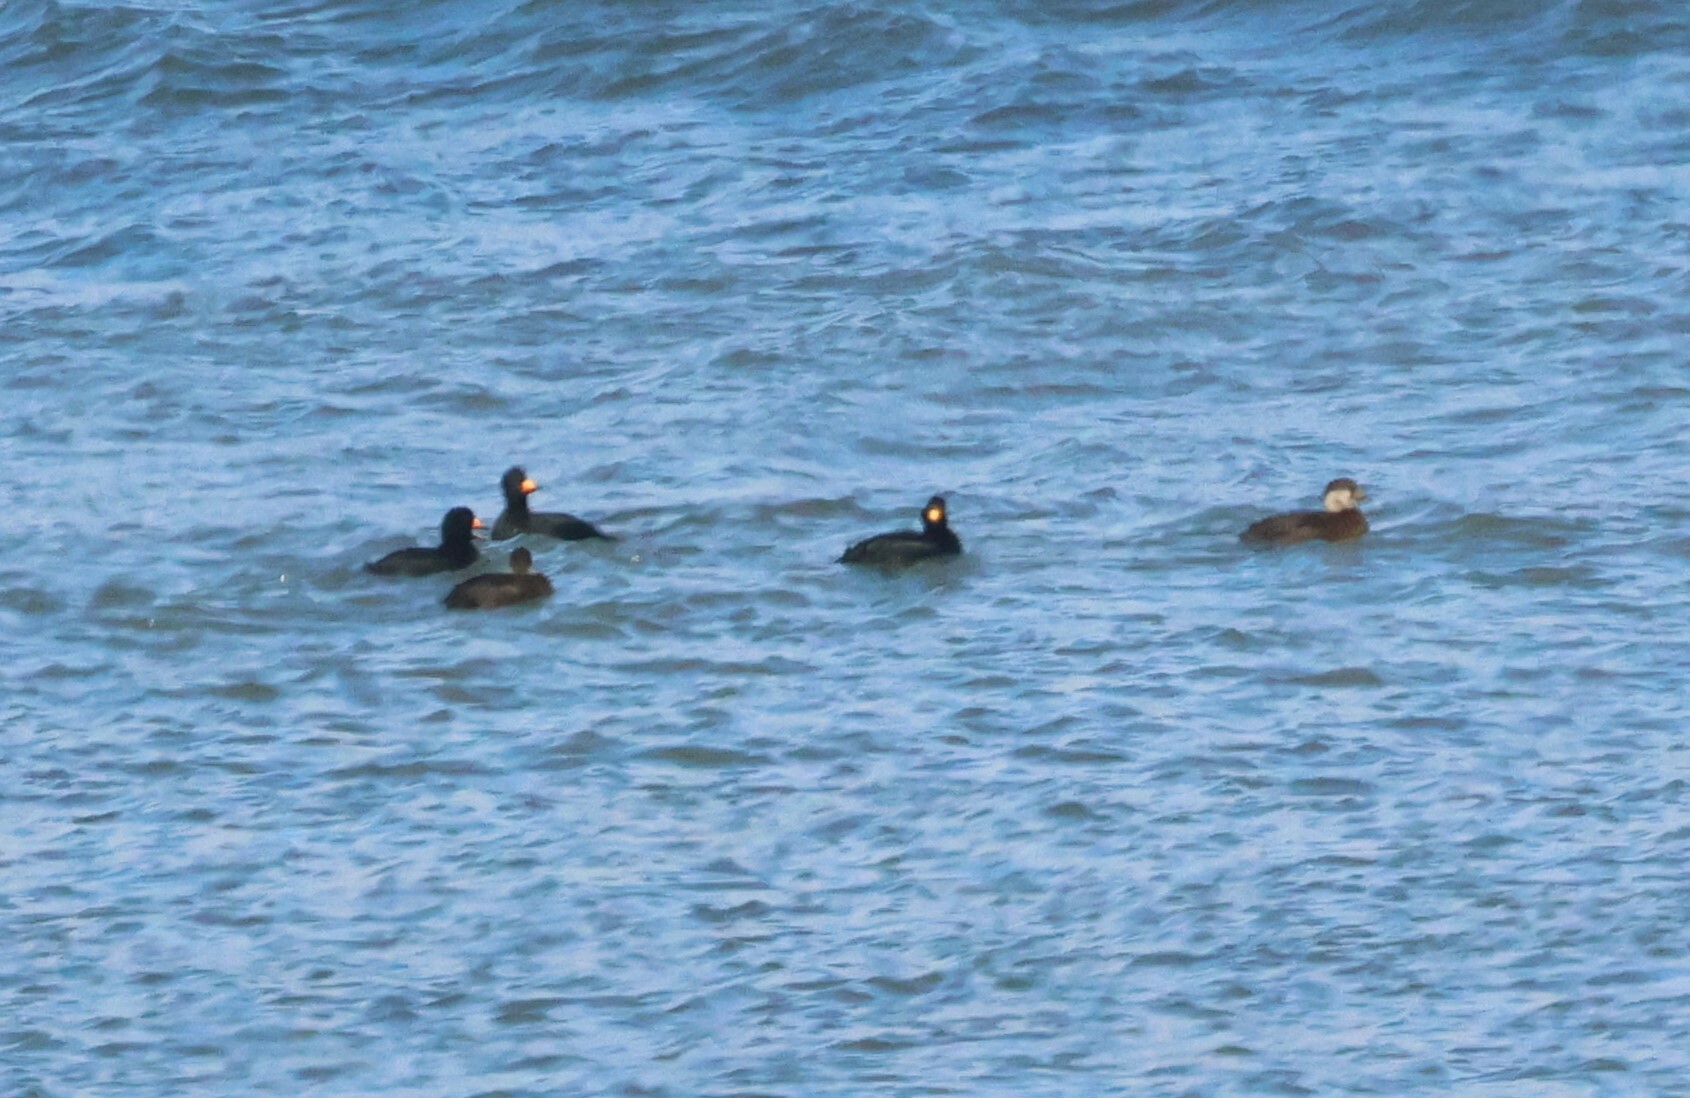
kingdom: Animalia
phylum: Chordata
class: Aves
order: Anseriformes
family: Anatidae
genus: Melanitta
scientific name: Melanitta americana
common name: Black scoter
